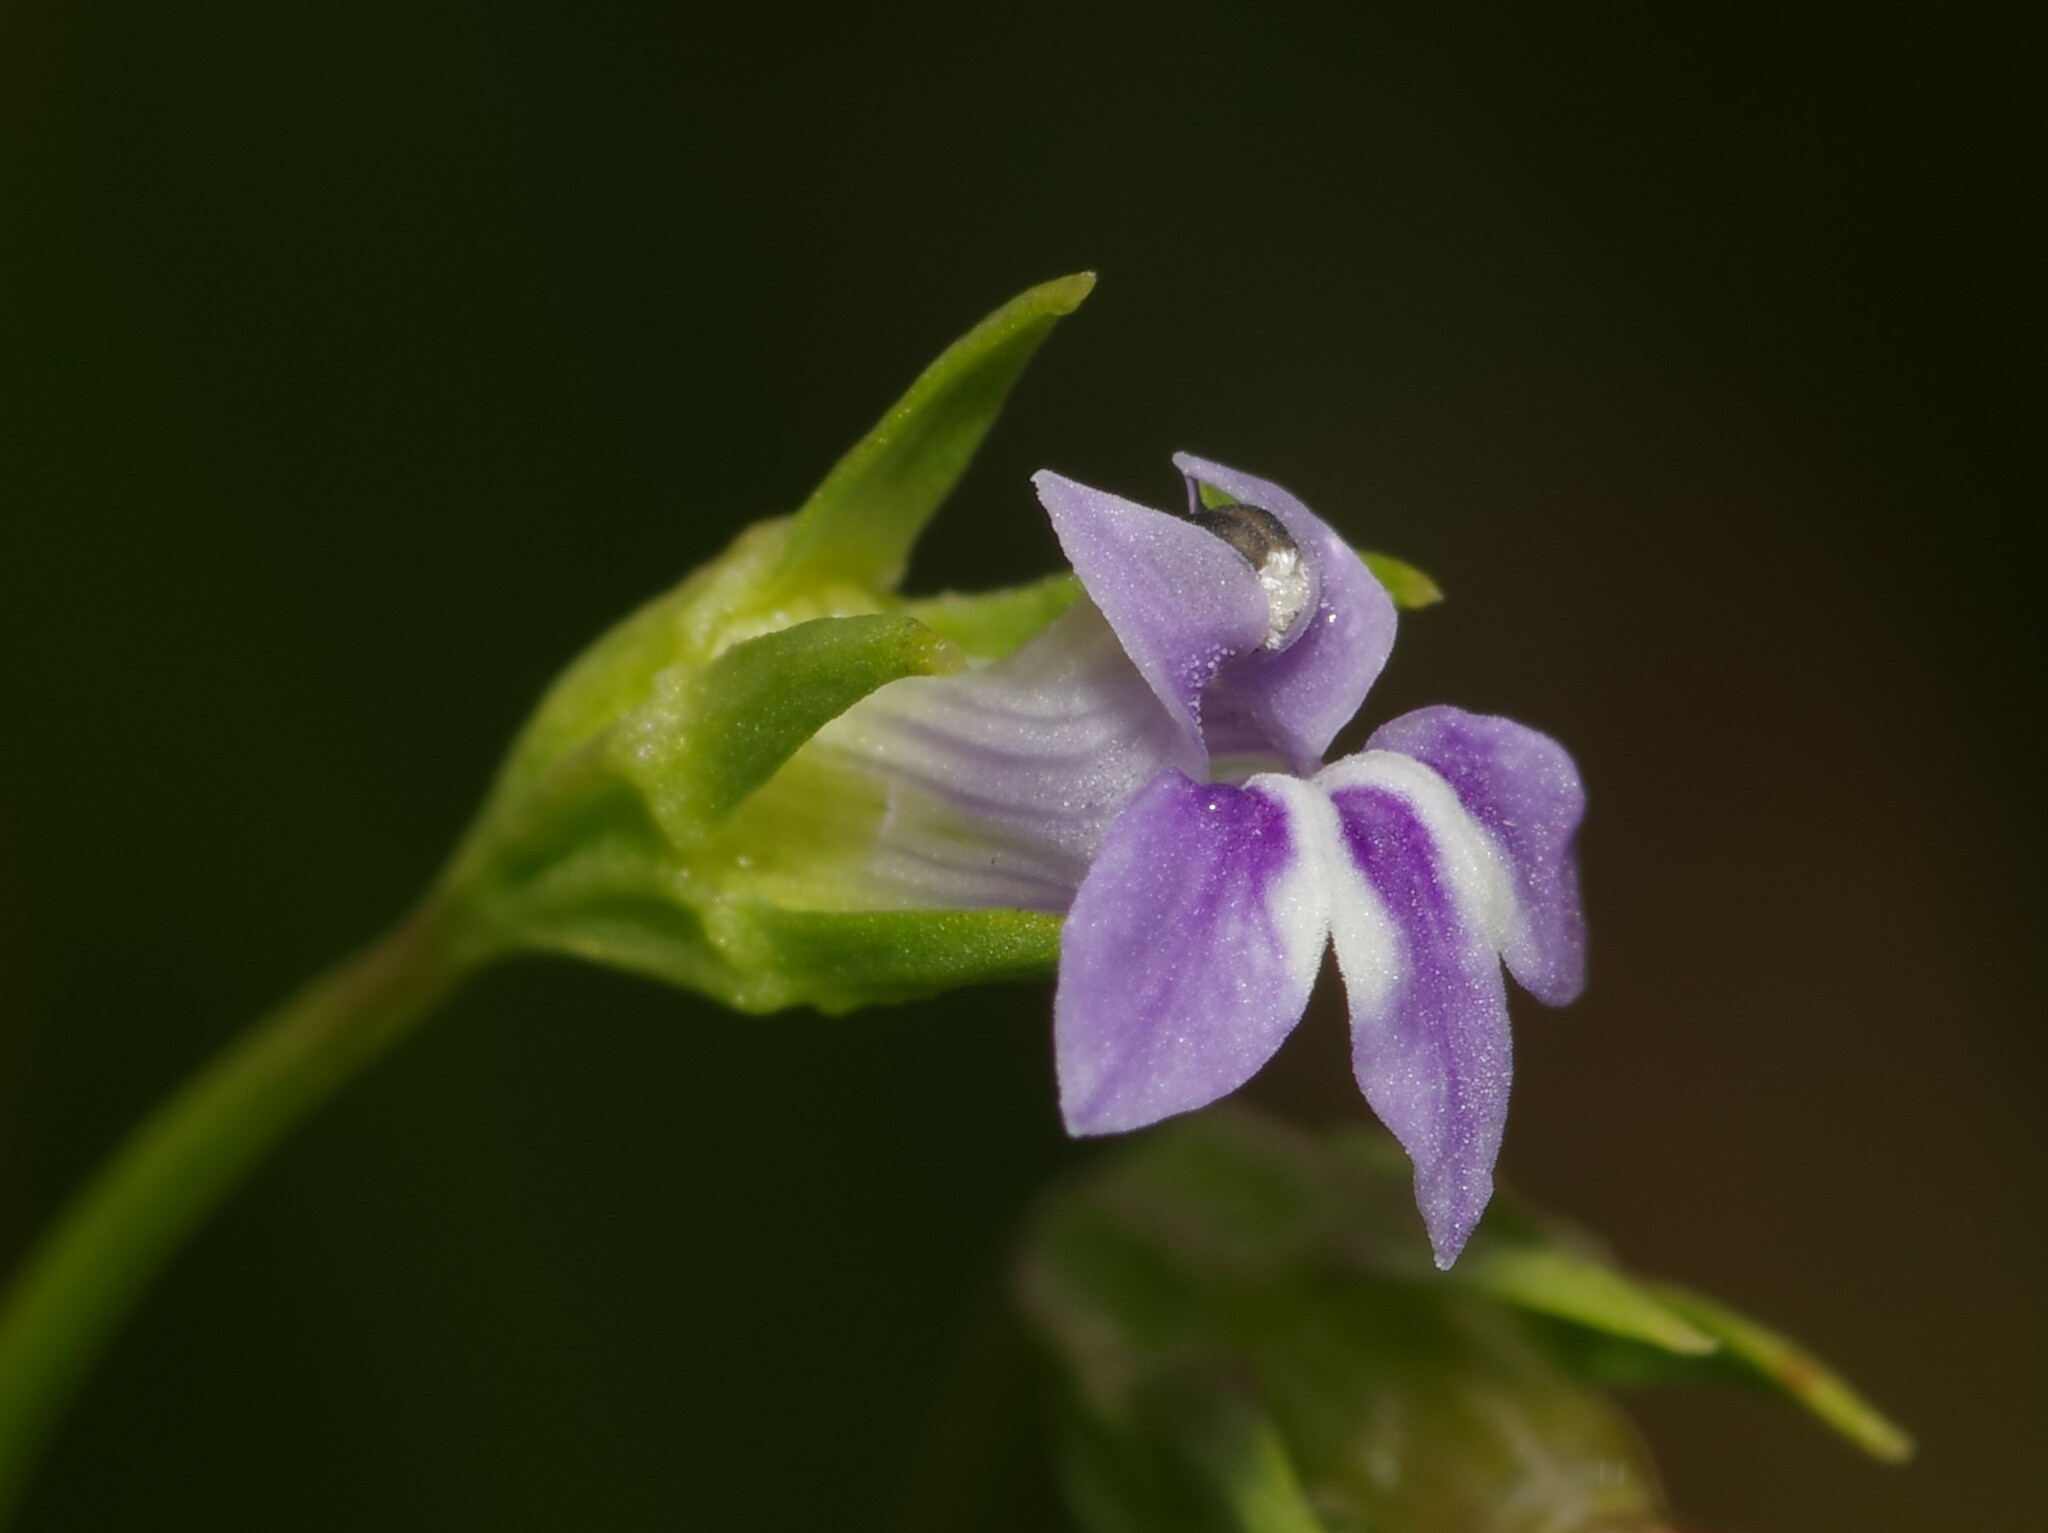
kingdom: Plantae
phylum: Tracheophyta
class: Magnoliopsida
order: Asterales
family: Campanulaceae
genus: Lobelia
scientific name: Lobelia aquatica
